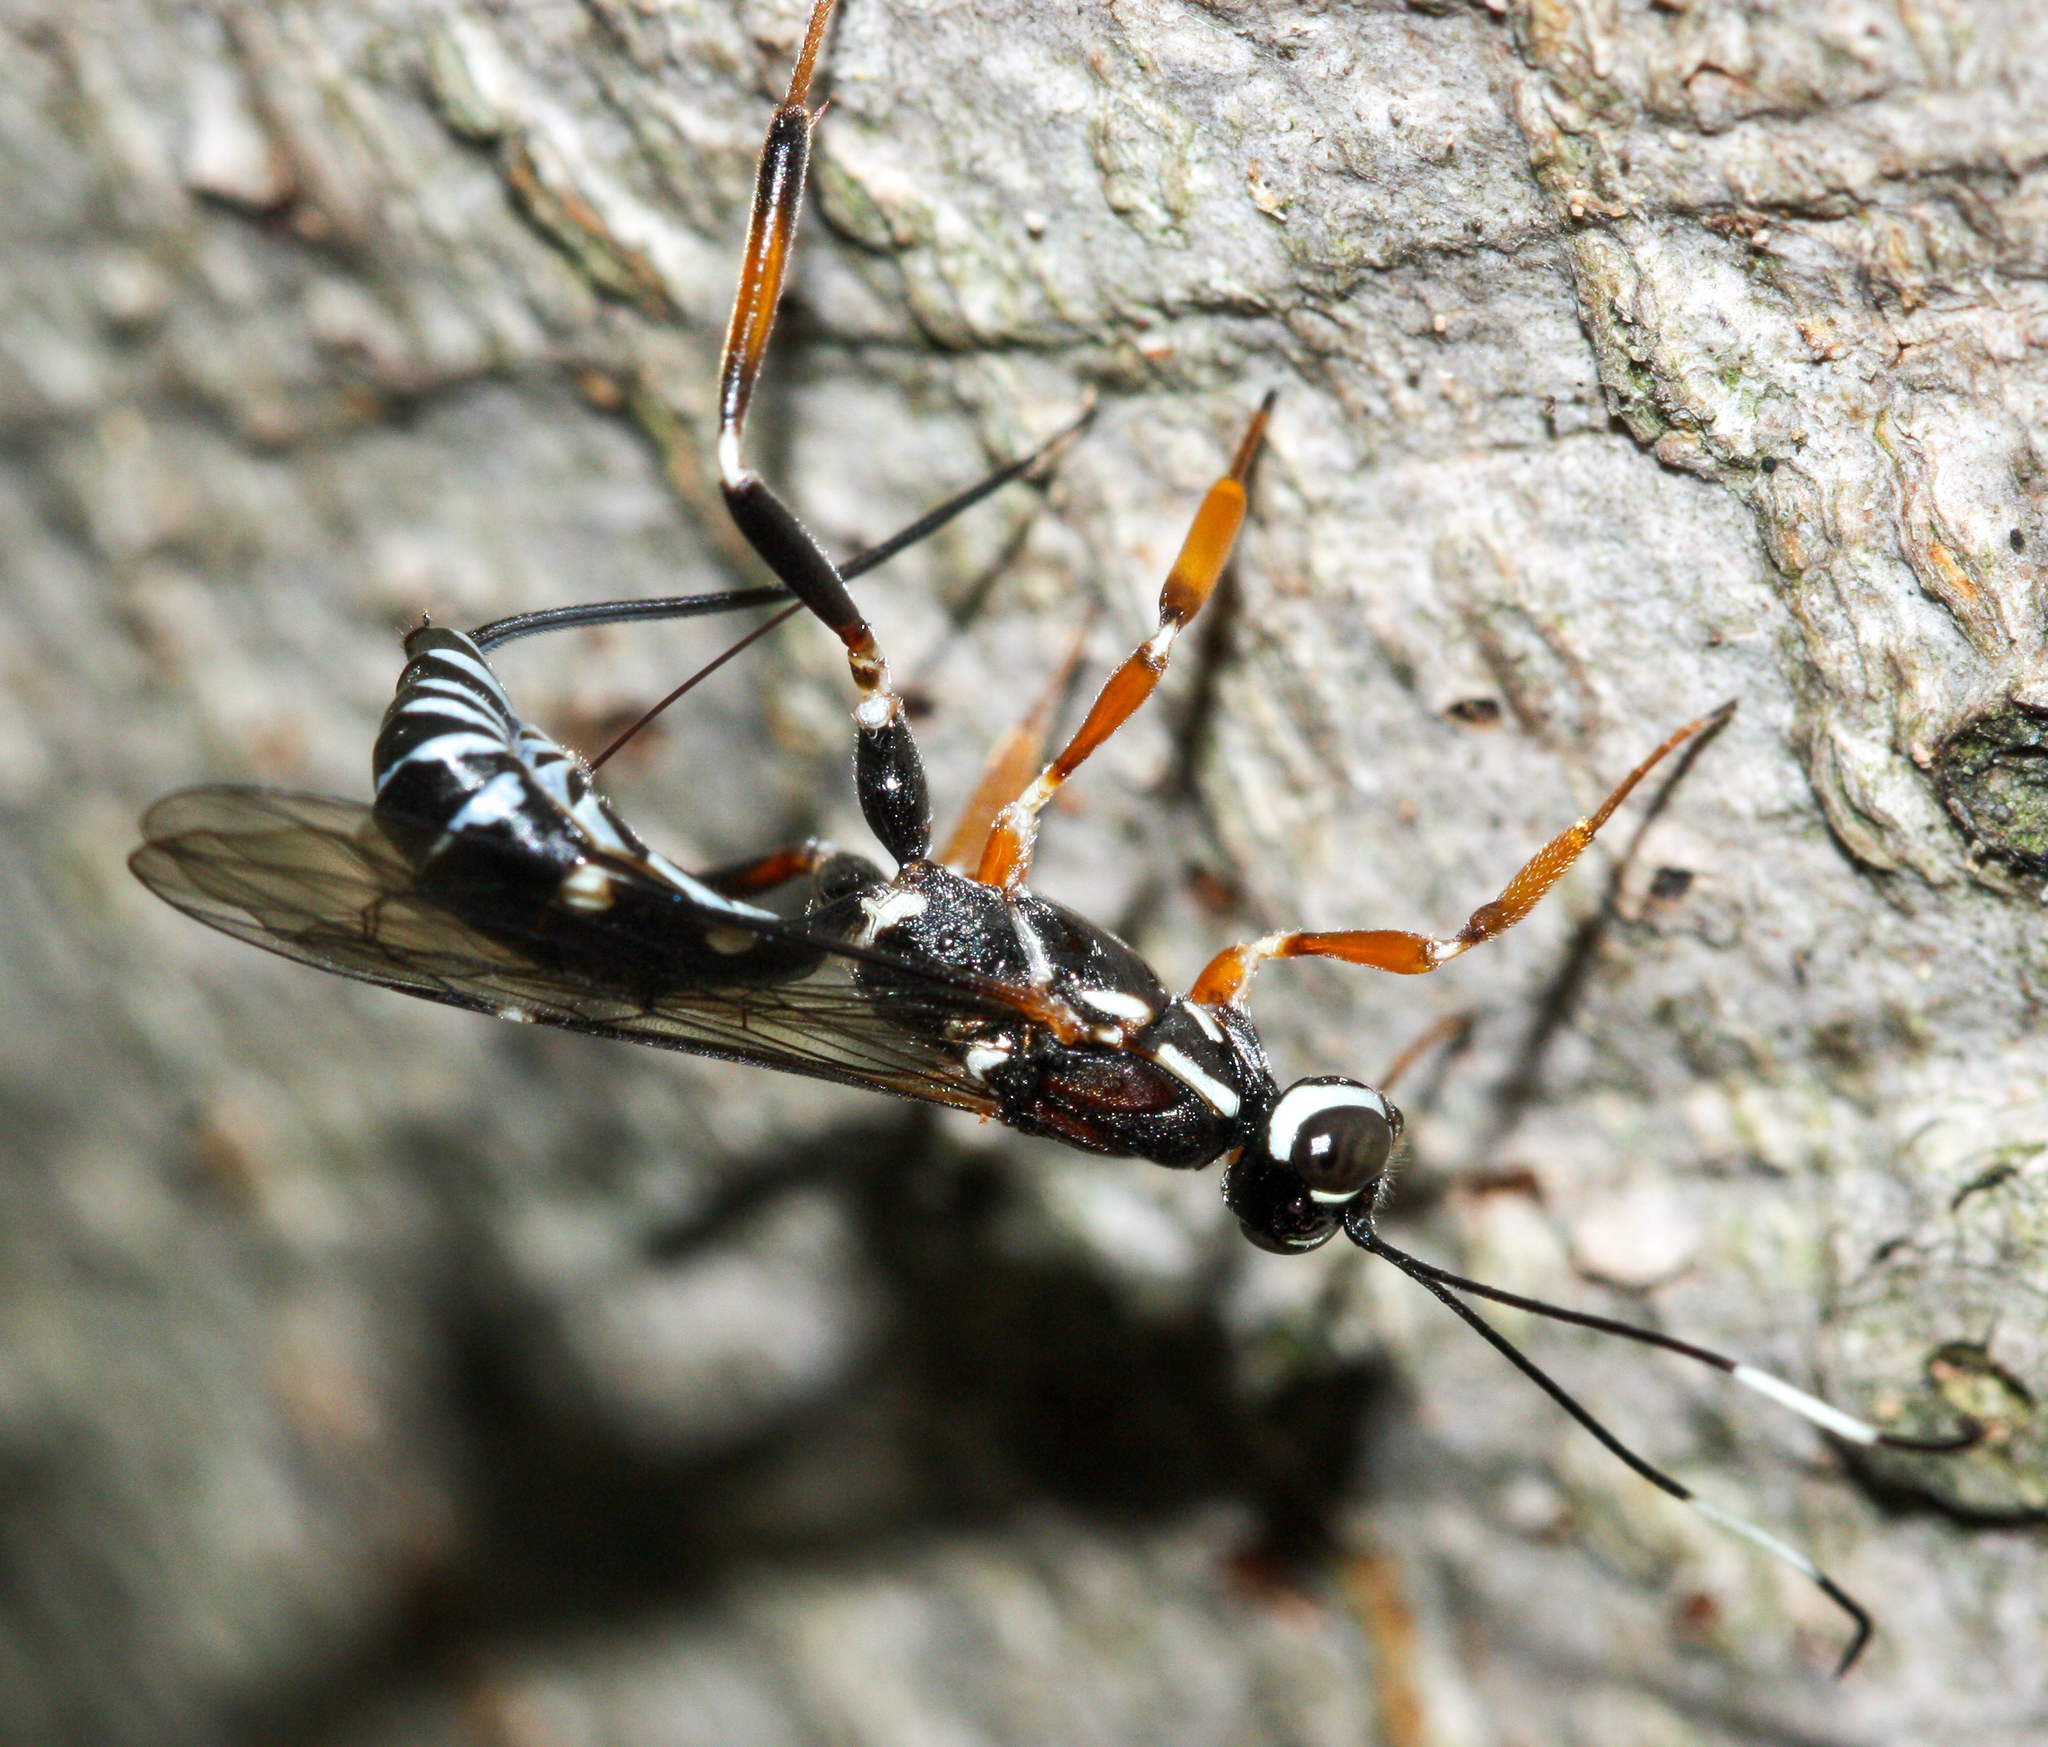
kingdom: Animalia
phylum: Arthropoda
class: Insecta
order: Hymenoptera
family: Ichneumonidae
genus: Xorides
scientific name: Xorides albopictus
